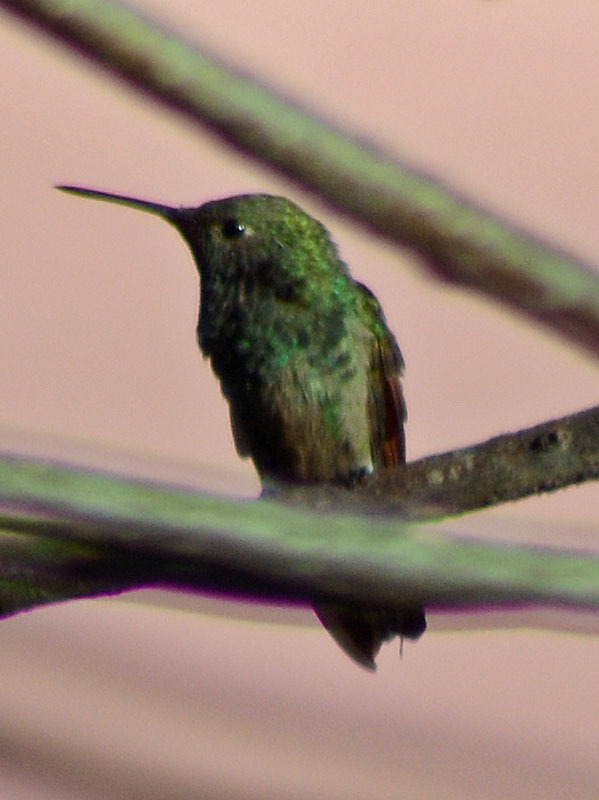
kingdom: Animalia
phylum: Chordata
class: Aves
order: Apodiformes
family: Trochilidae
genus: Saucerottia
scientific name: Saucerottia beryllina
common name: Berylline hummingbird
